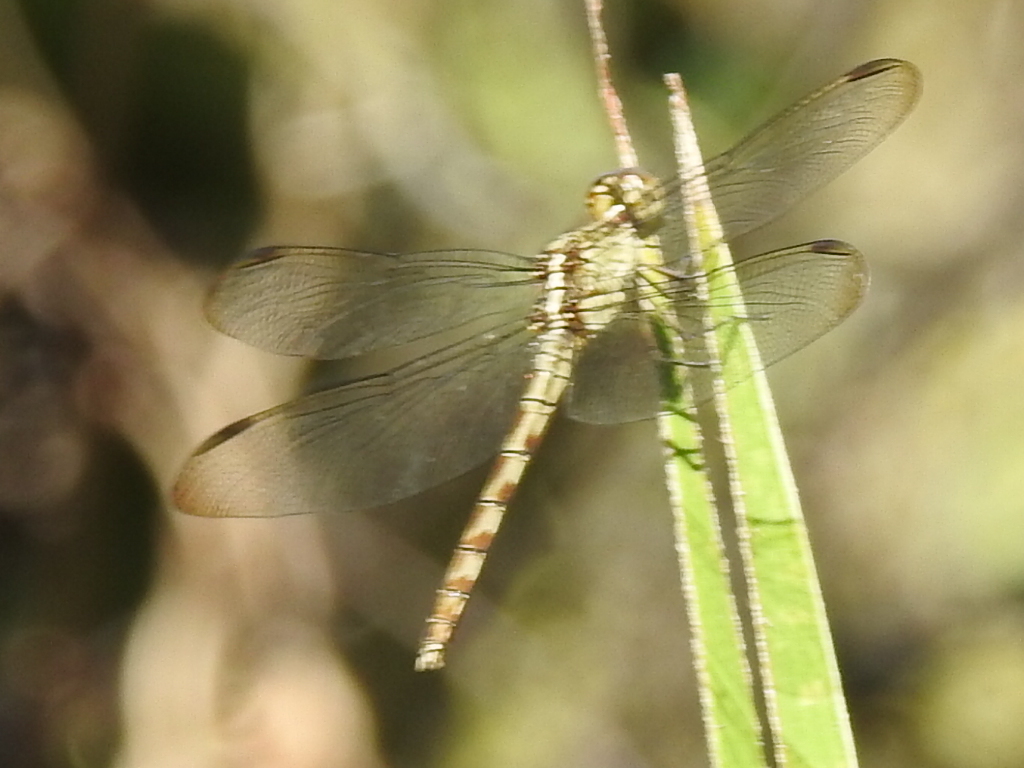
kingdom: Animalia
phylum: Arthropoda
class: Insecta
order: Odonata
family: Libellulidae
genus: Erythrodiplax
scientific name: Erythrodiplax umbrata
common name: Band-winged dragonlet
